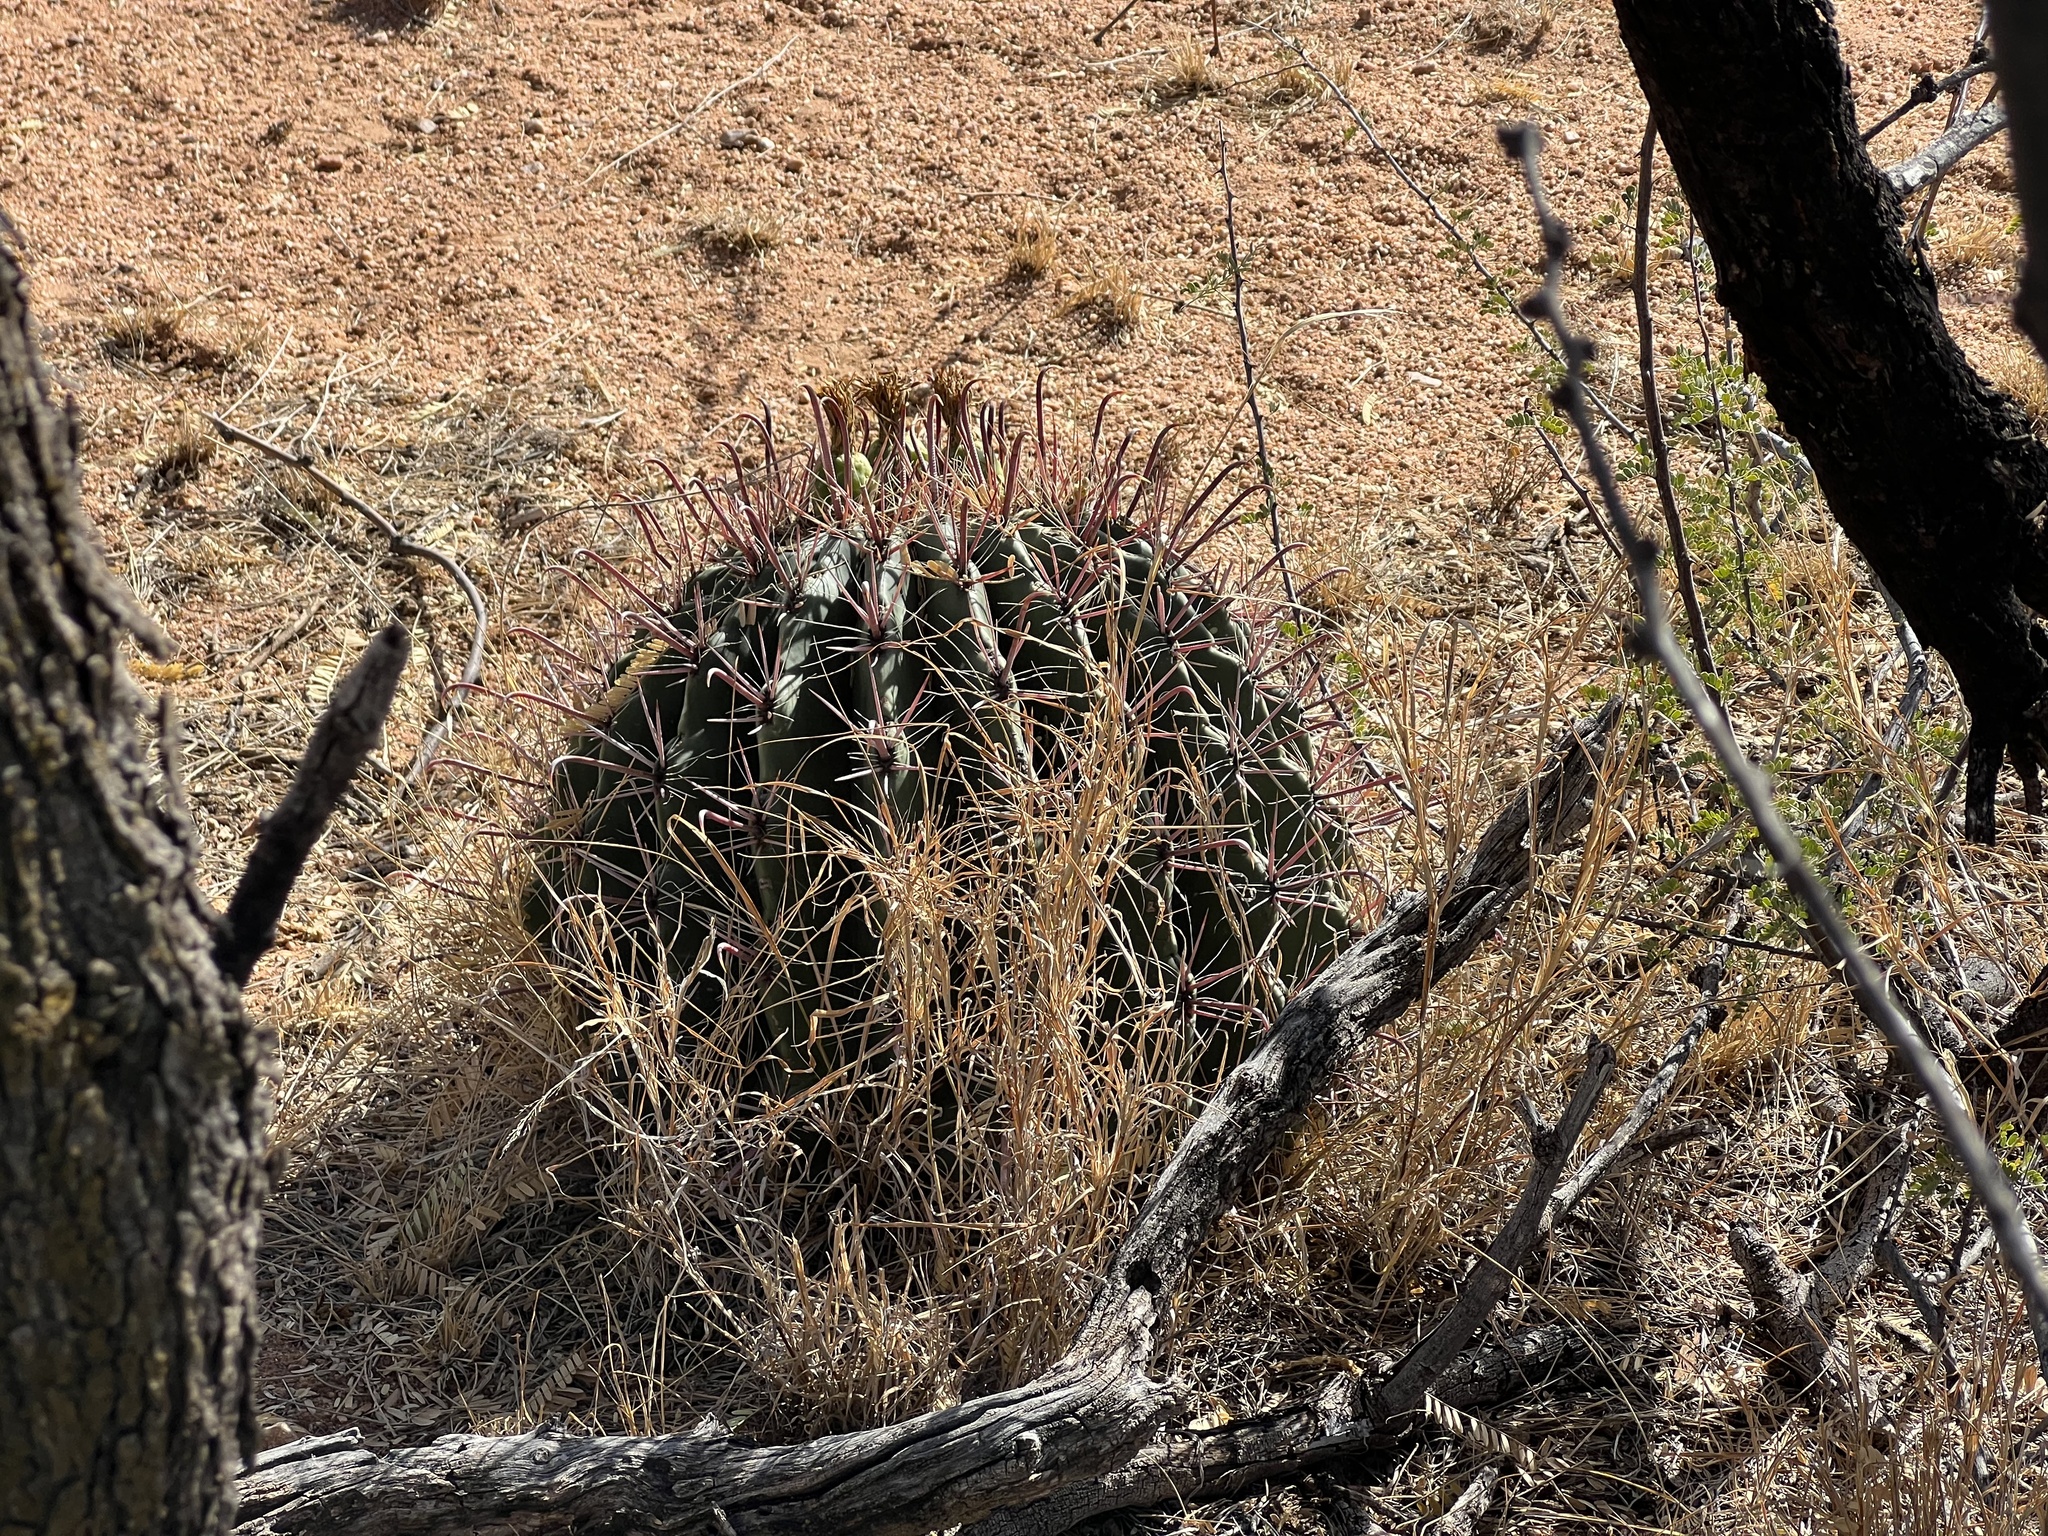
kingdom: Plantae
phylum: Tracheophyta
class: Magnoliopsida
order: Caryophyllales
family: Cactaceae
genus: Ferocactus
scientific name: Ferocactus wislizeni
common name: Candy barrel cactus
